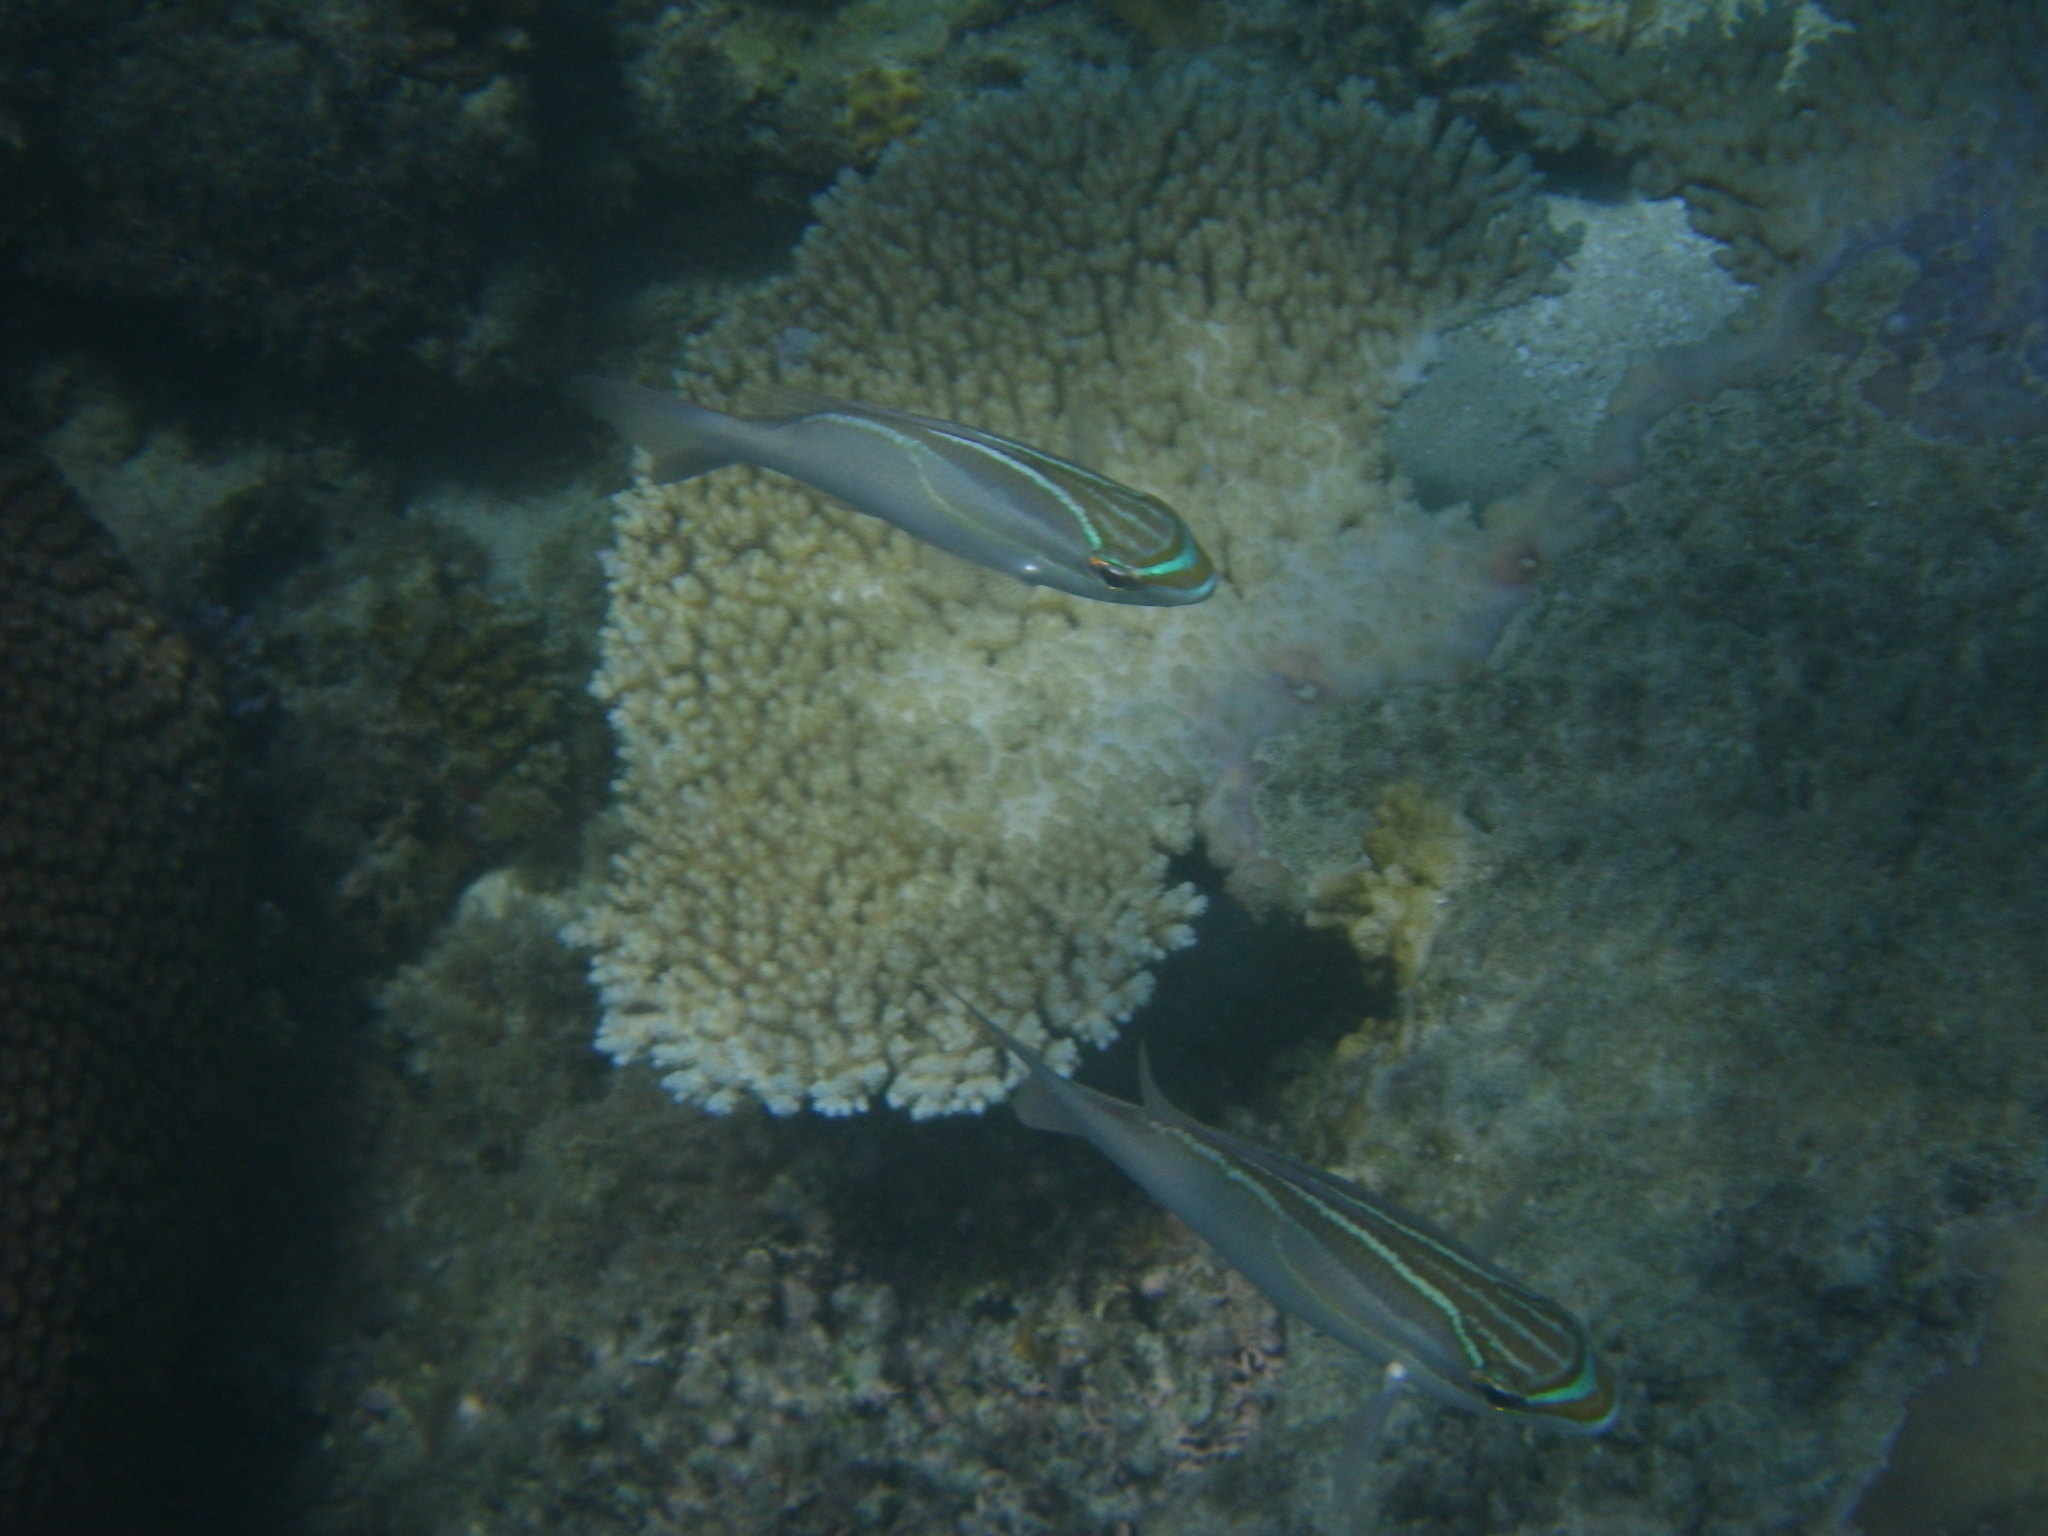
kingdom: Animalia
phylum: Chordata
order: Perciformes
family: Nemipteridae
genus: Scolopsis
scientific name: Scolopsis trilineata
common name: Three-lined monocle bream
